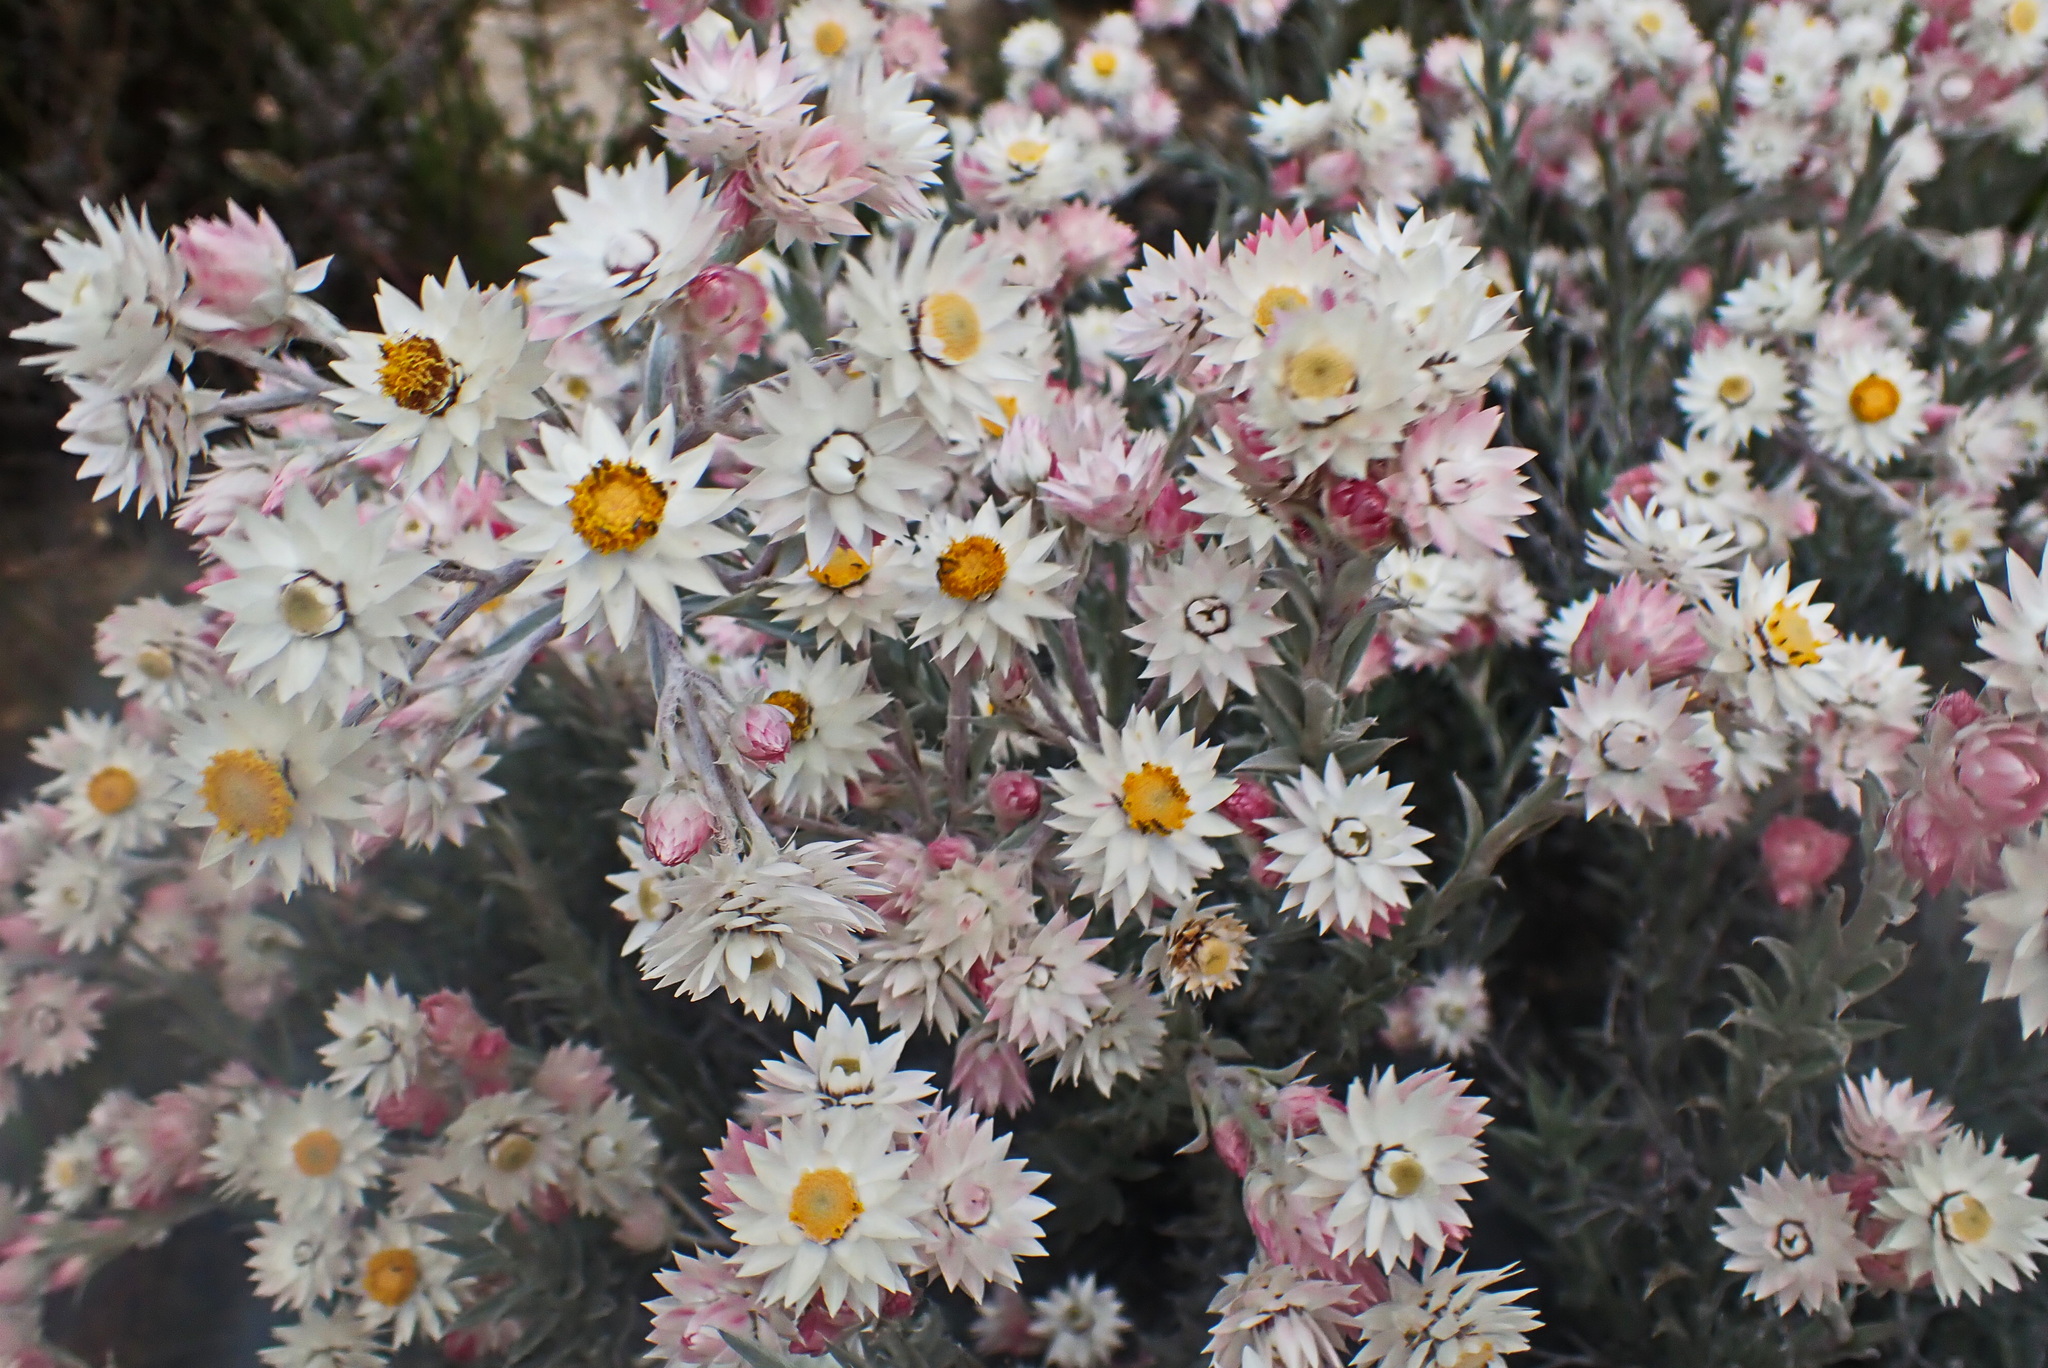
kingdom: Plantae
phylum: Tracheophyta
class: Magnoliopsida
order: Asterales
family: Asteraceae
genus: Achyranthemum
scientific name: Achyranthemum paniculatum
